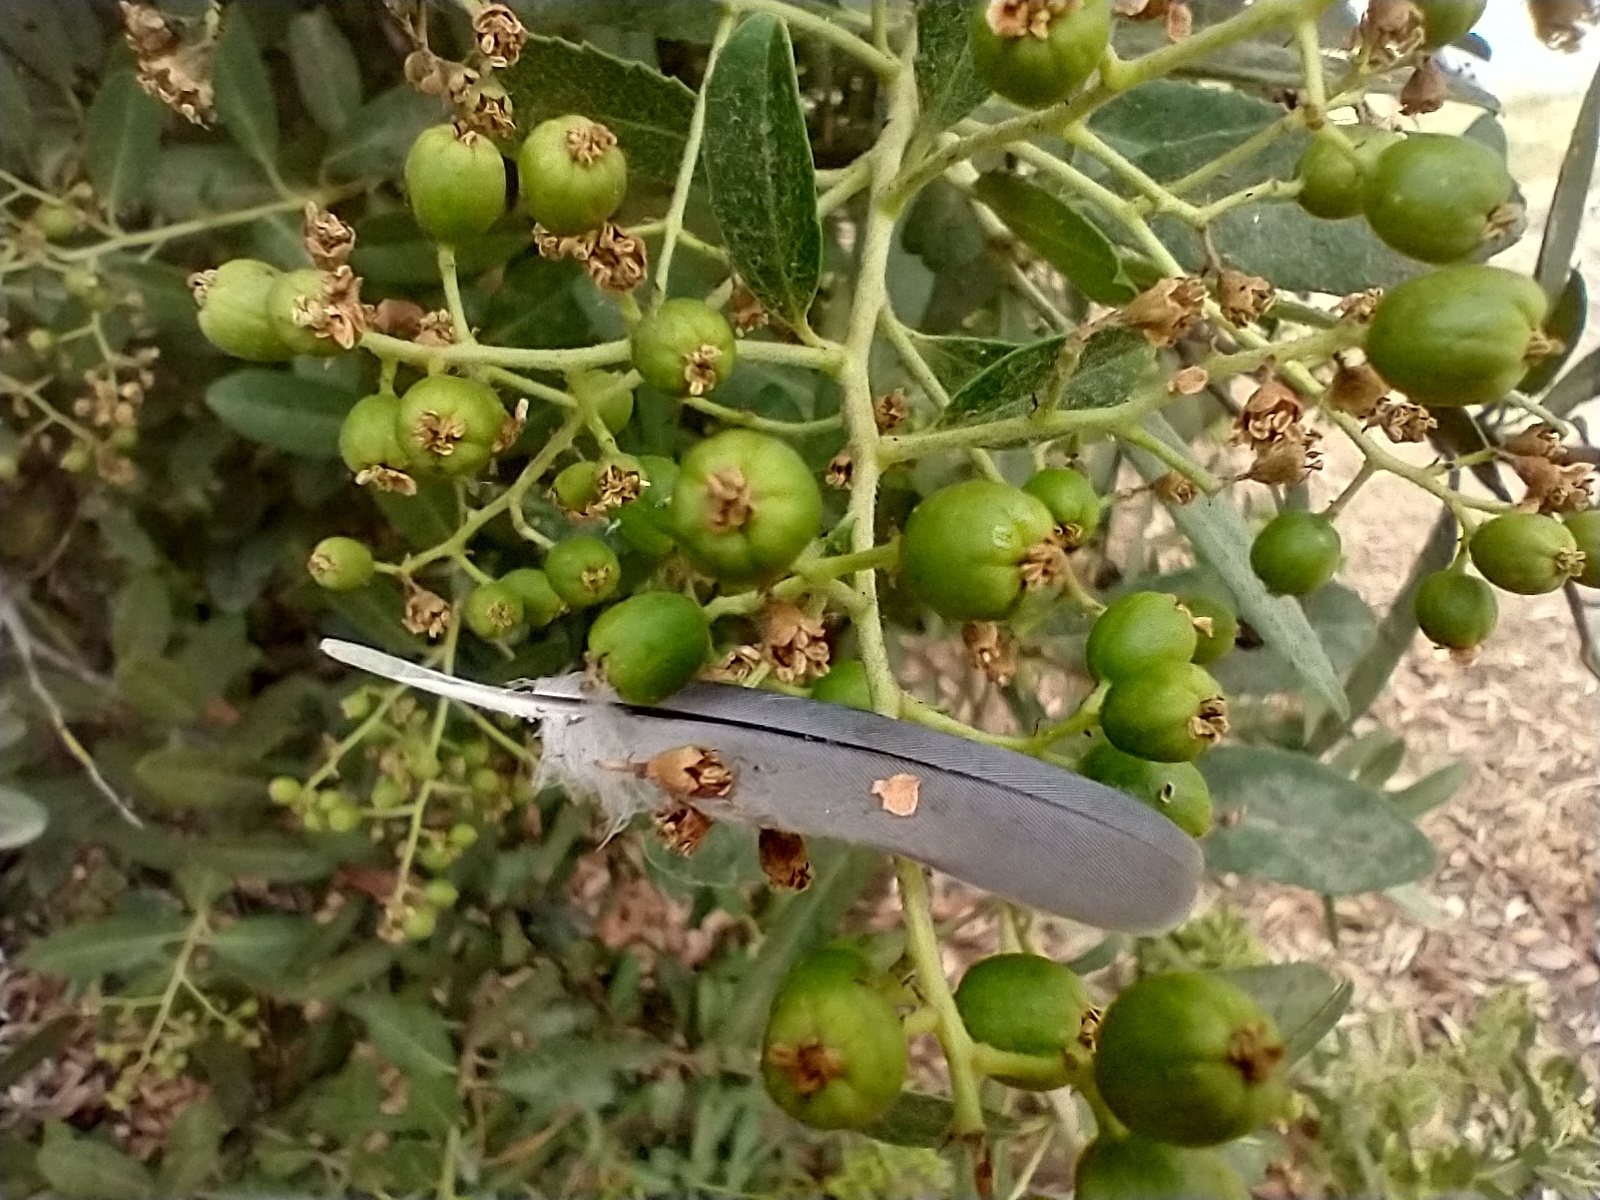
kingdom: Animalia
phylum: Chordata
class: Aves
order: Columbiformes
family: Columbidae
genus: Zenaida
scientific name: Zenaida macroura
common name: Mourning dove
